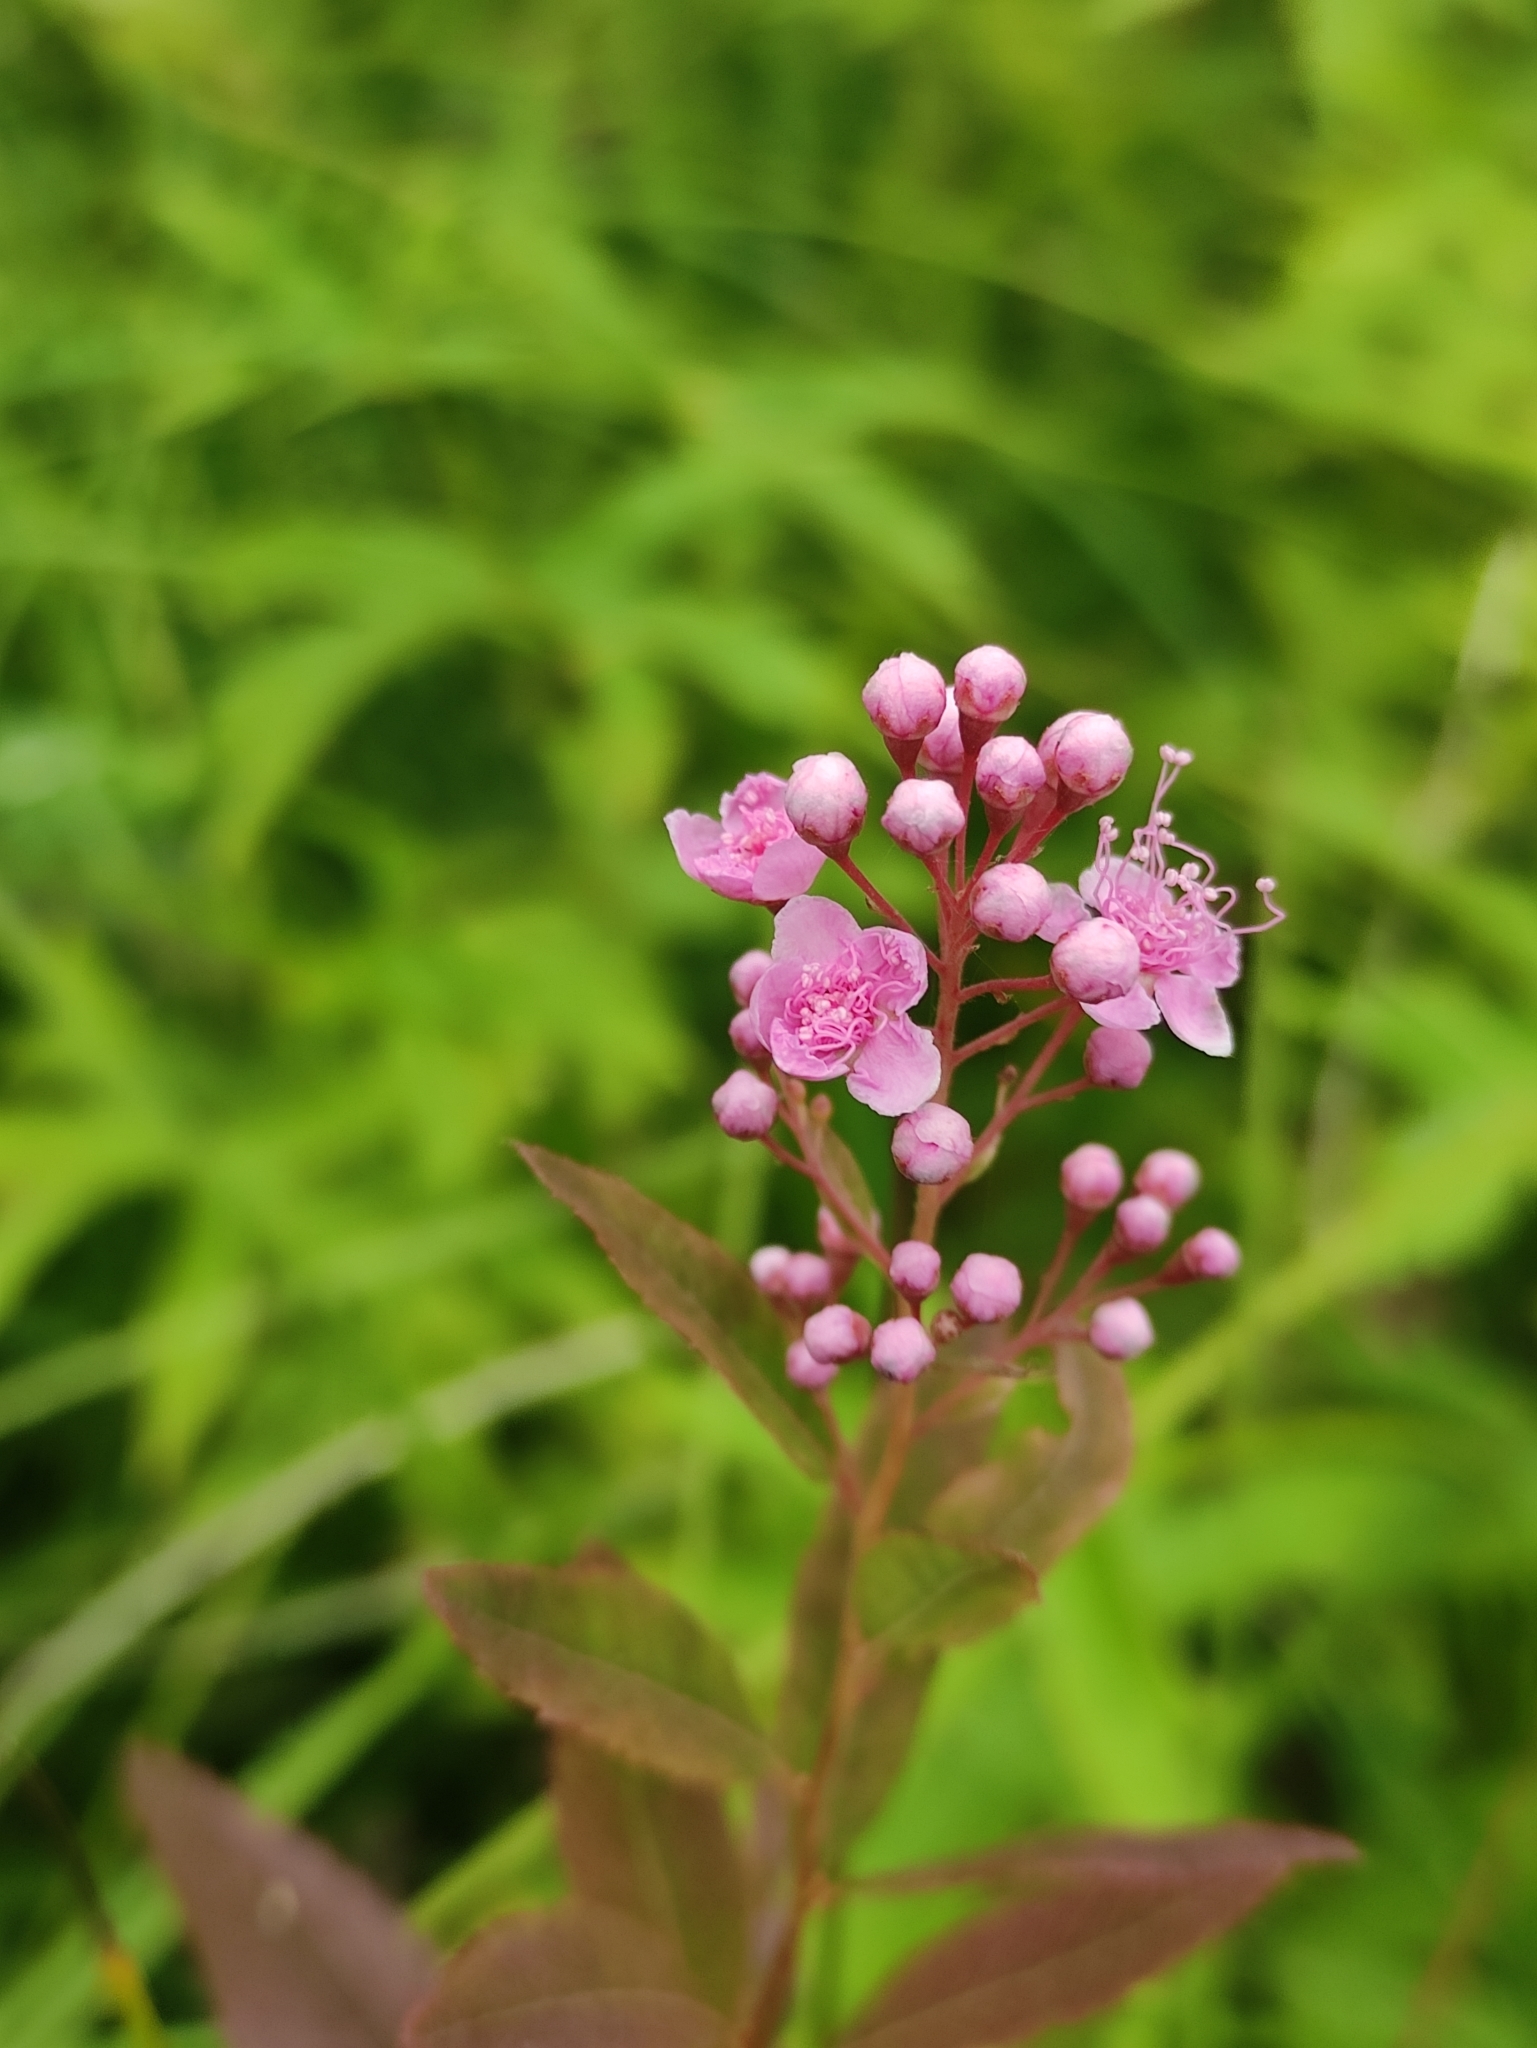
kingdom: Plantae
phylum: Tracheophyta
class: Magnoliopsida
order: Rosales
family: Rosaceae
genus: Spiraea
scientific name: Spiraea salicifolia
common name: Bridewort
